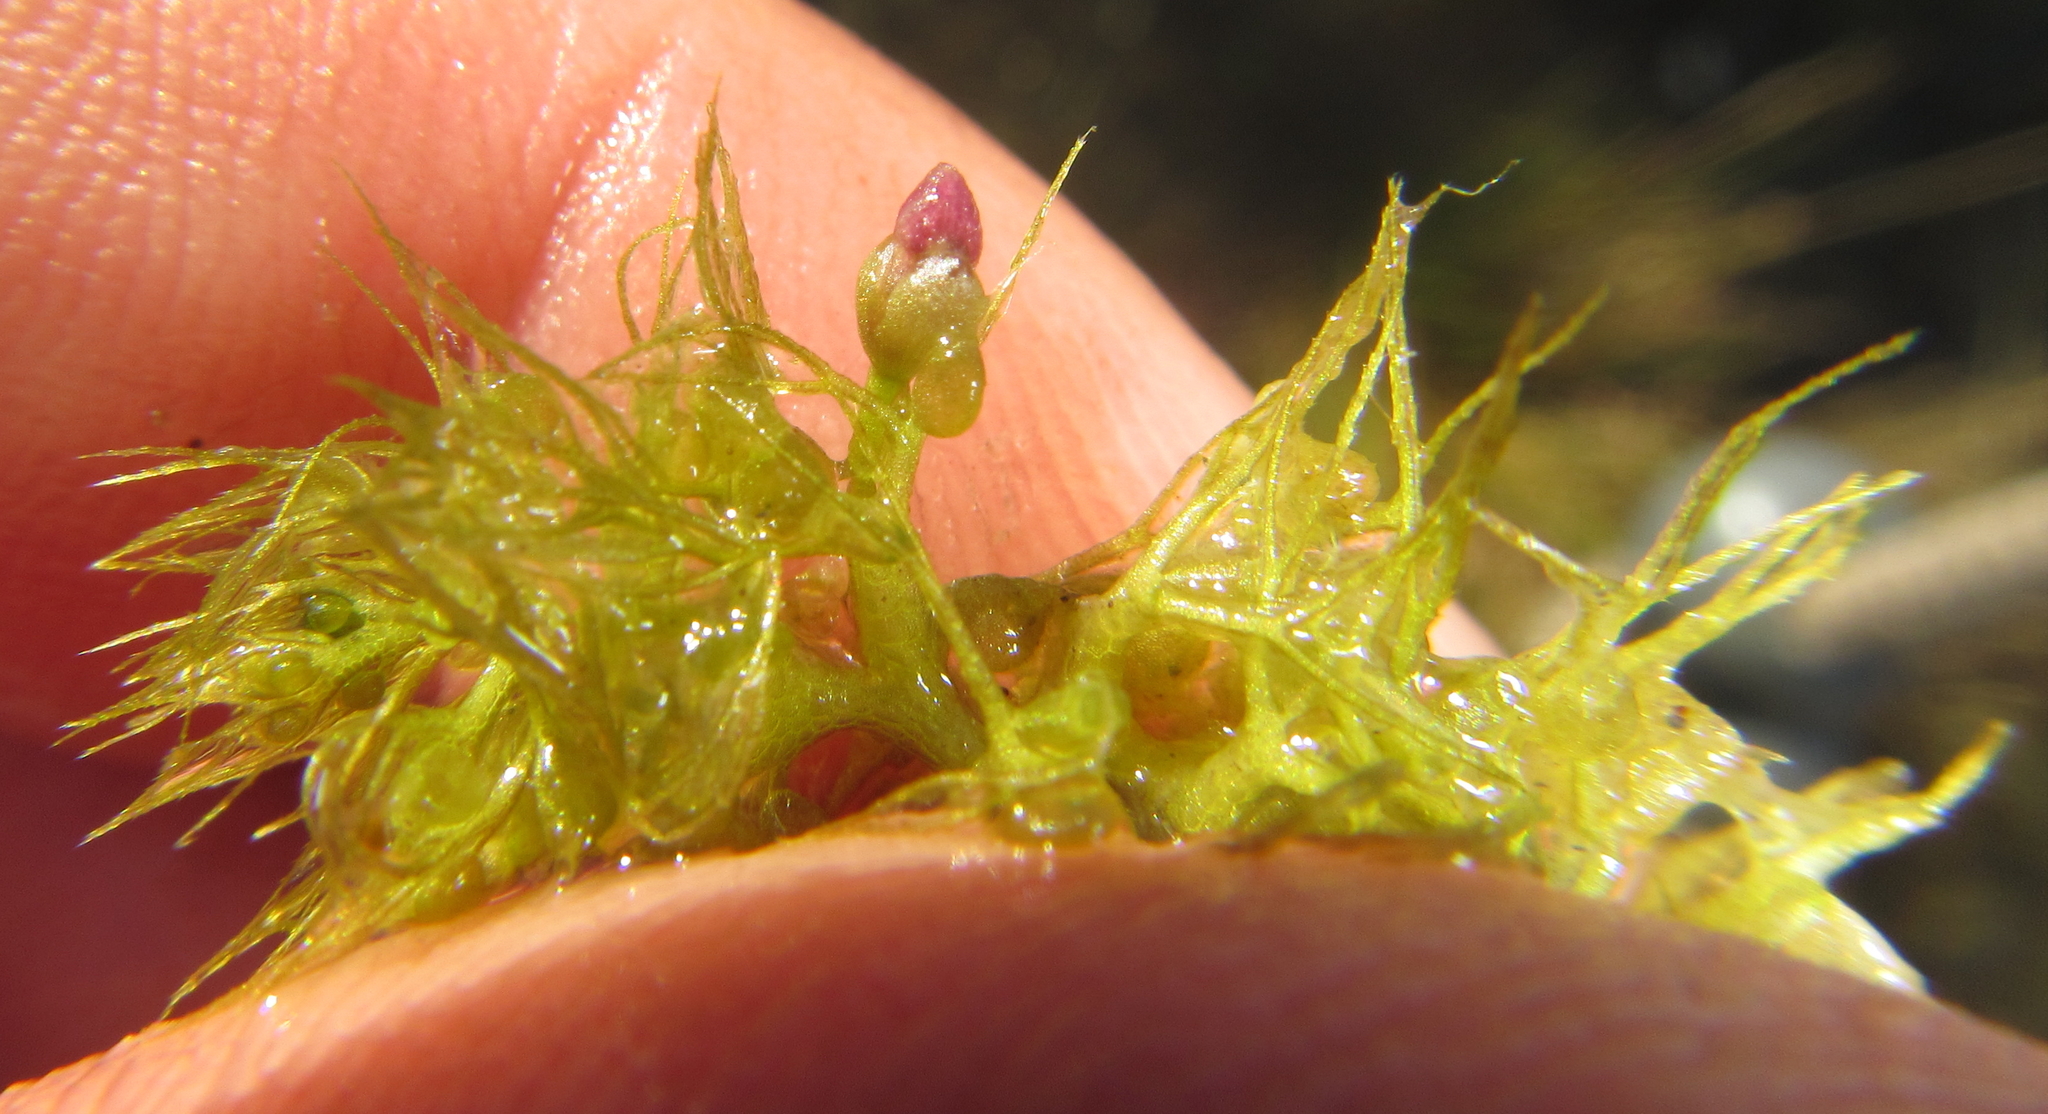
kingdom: Plantae
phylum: Tracheophyta
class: Magnoliopsida
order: Lamiales
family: Lentibulariaceae
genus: Utricularia
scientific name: Utricularia raynalii
